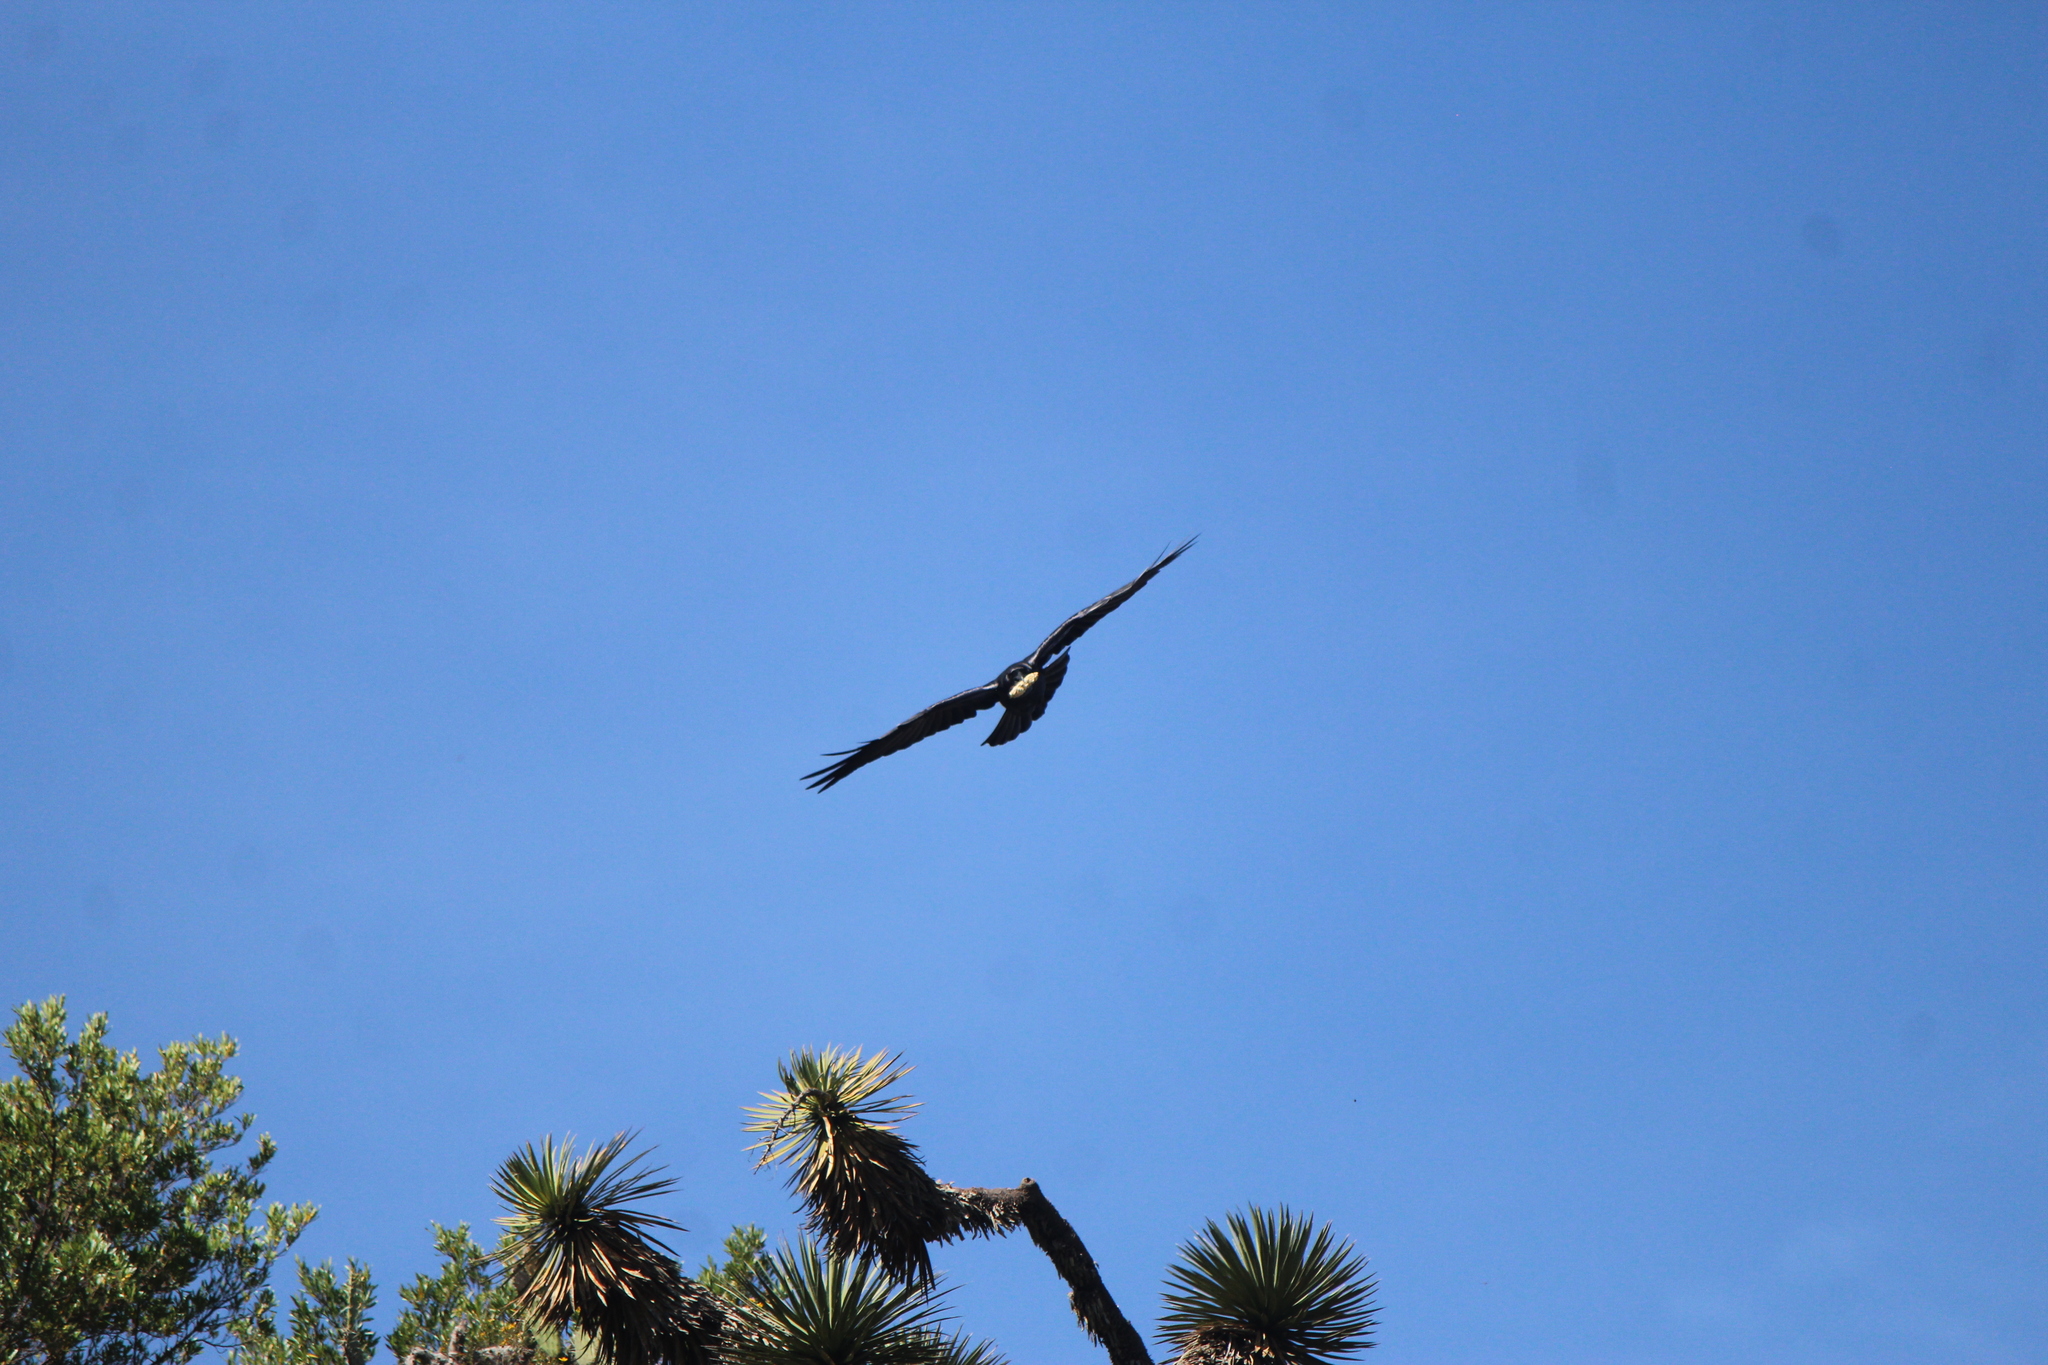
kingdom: Animalia
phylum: Chordata
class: Aves
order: Passeriformes
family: Corvidae
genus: Corvus
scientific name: Corvus corax
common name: Common raven
